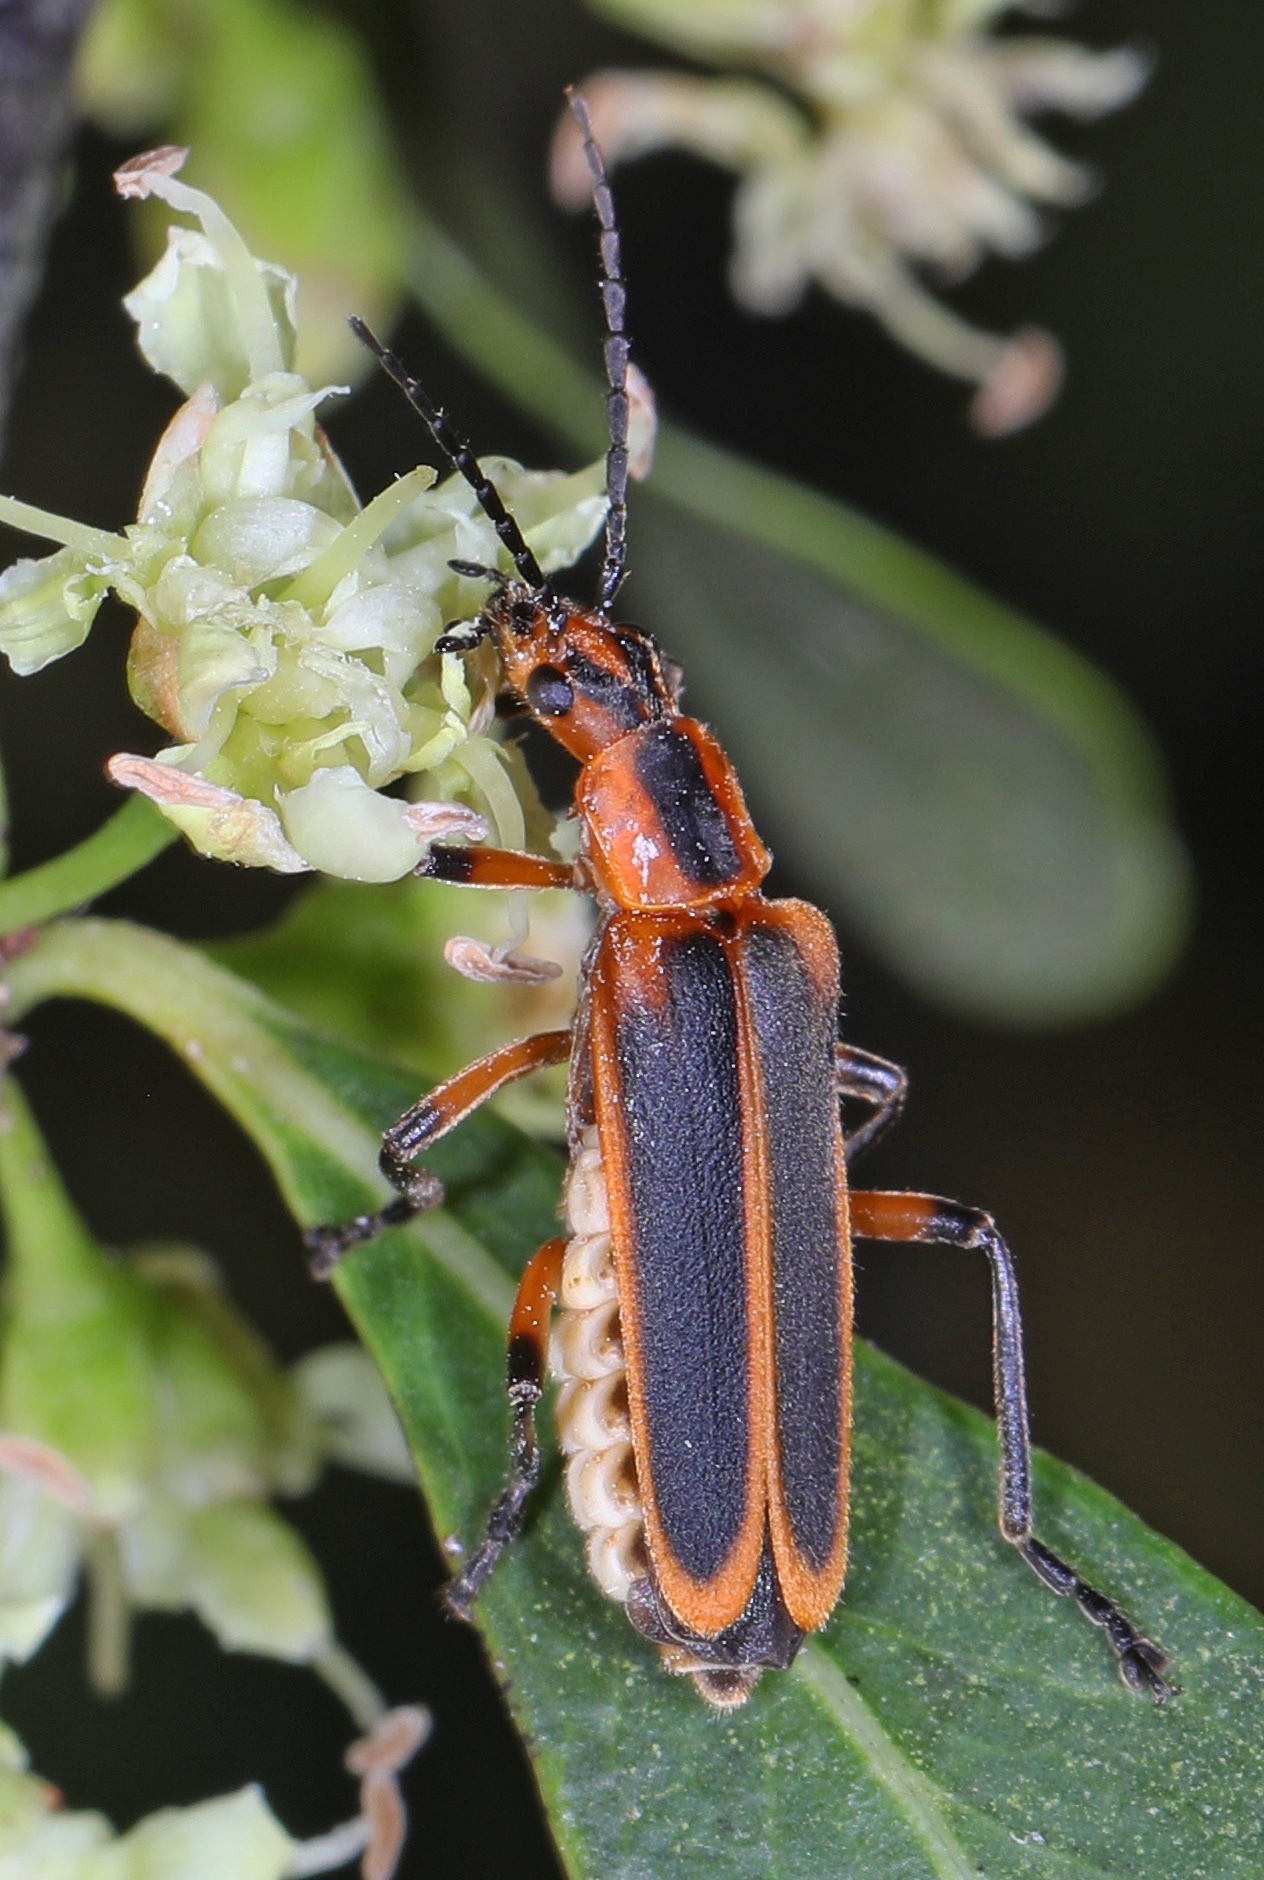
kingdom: Animalia
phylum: Arthropoda
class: Insecta
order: Coleoptera
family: Cantharidae
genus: Chauliognathus
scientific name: Chauliognathus marginatus
